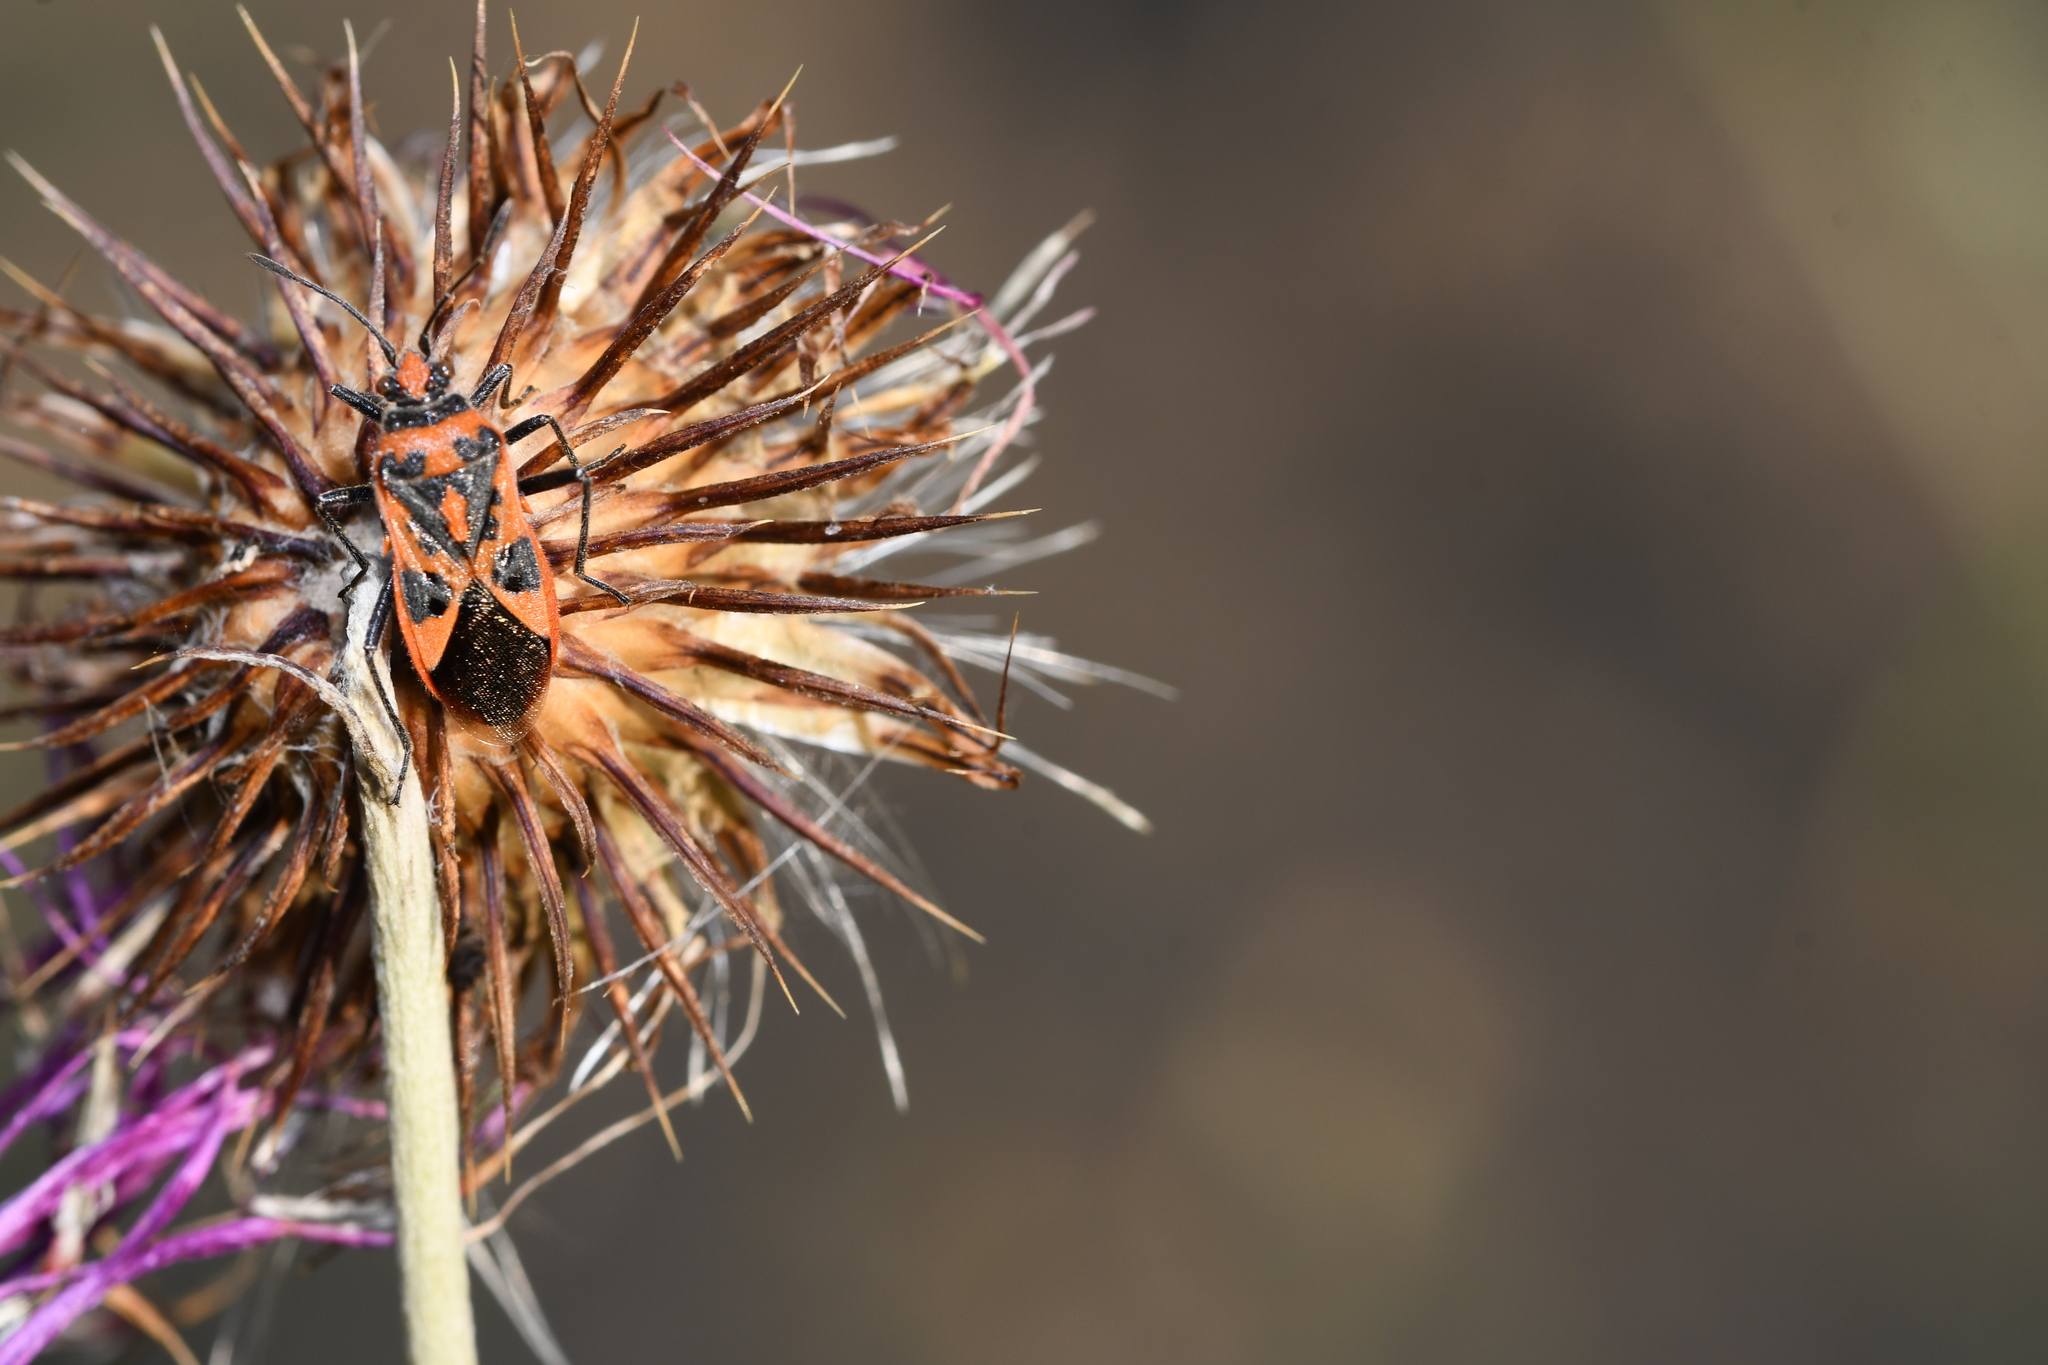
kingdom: Animalia
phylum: Arthropoda
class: Insecta
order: Hemiptera
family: Rhopalidae
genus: Corizus
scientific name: Corizus hyoscyami
